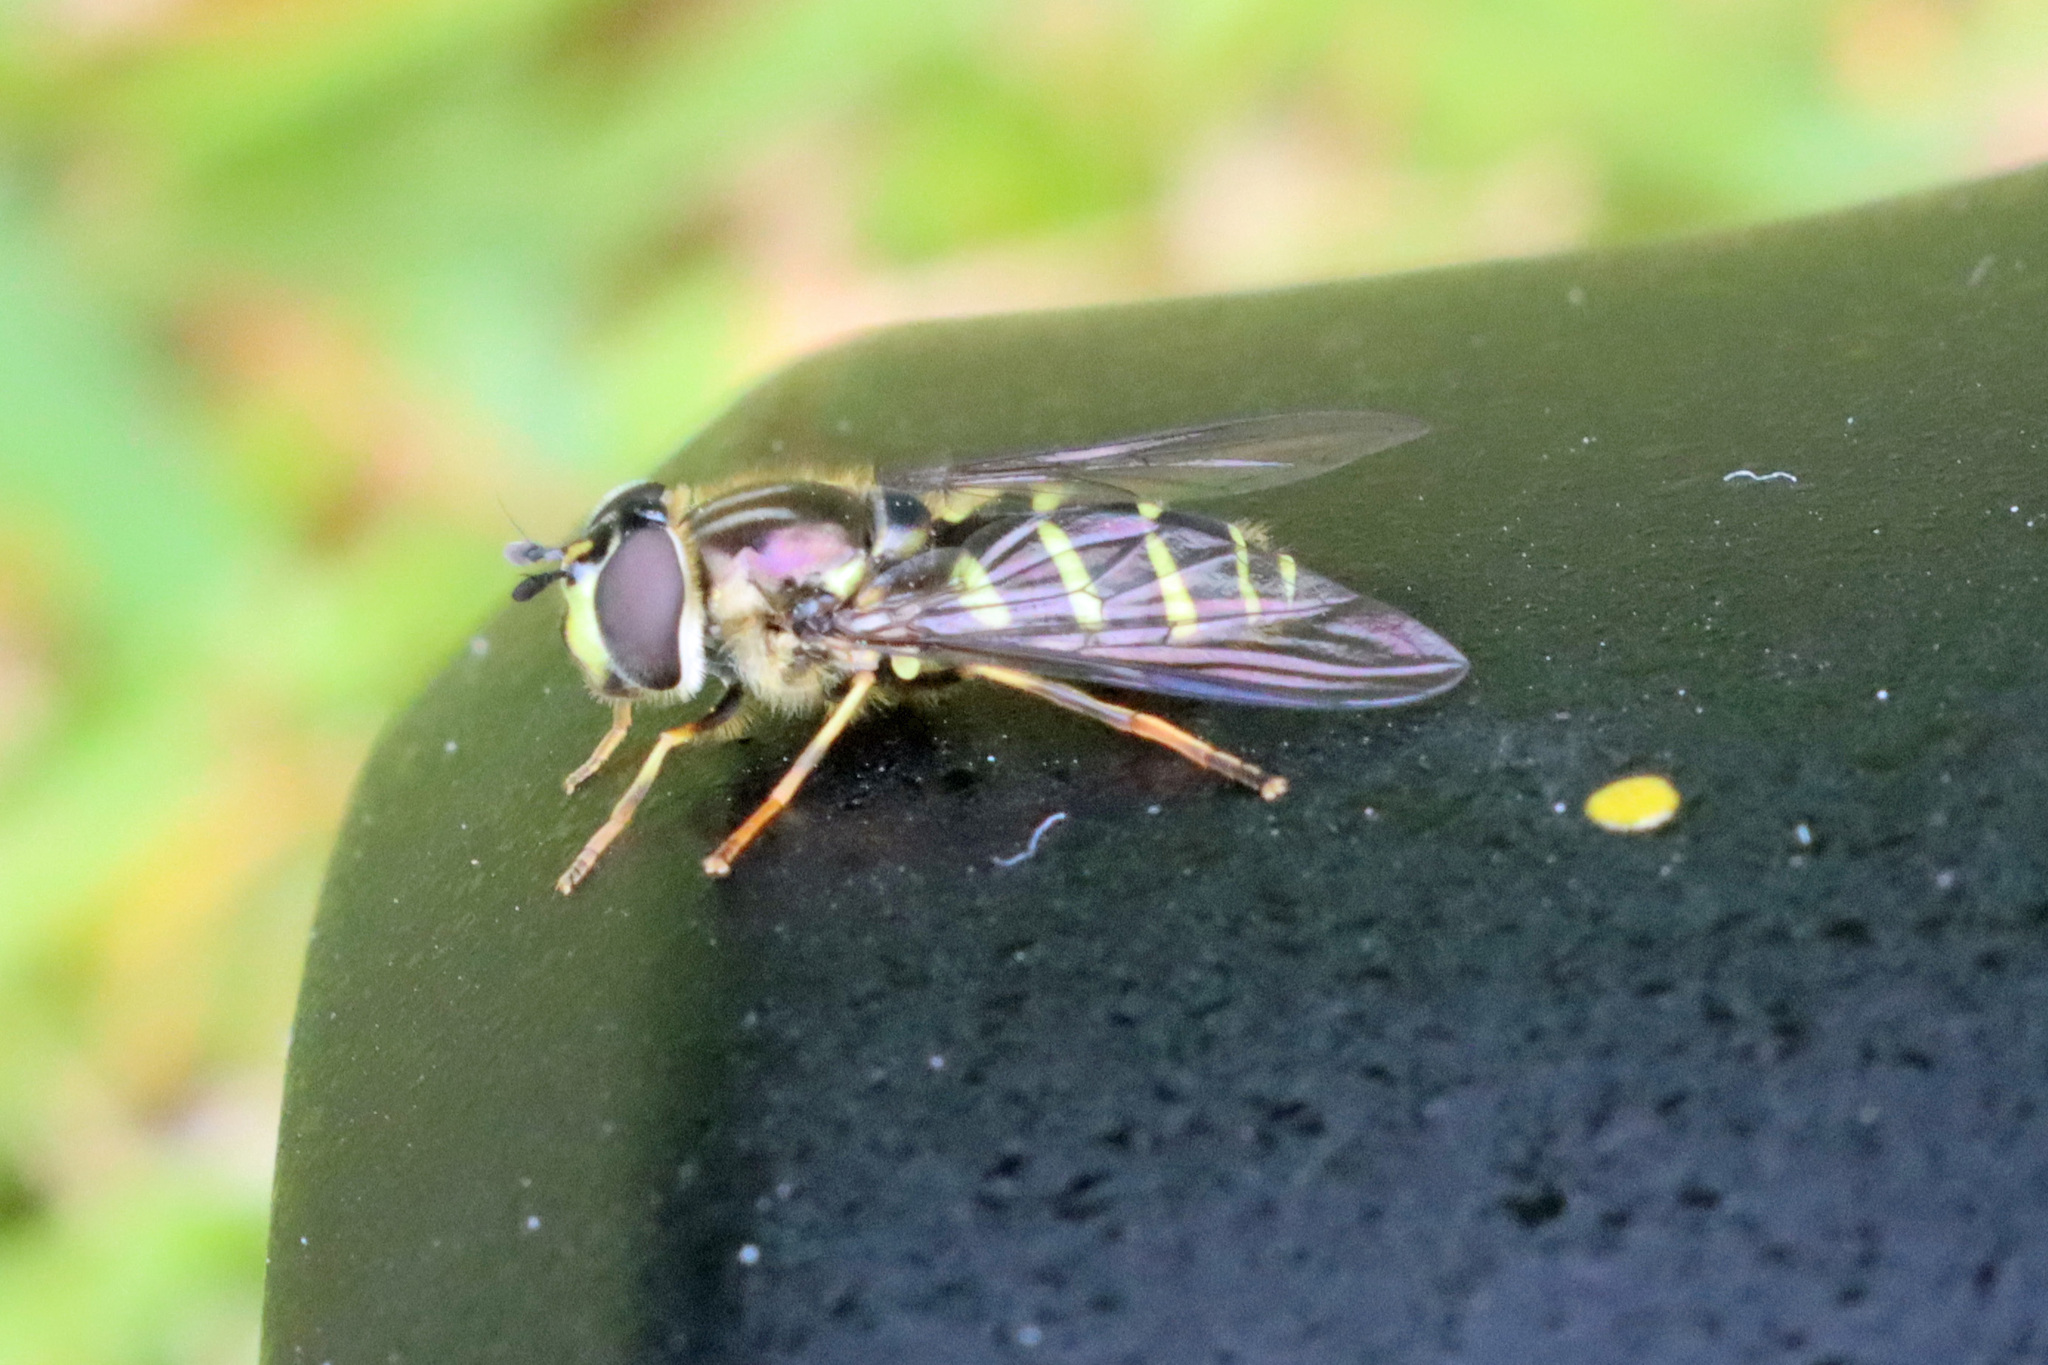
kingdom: Animalia
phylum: Arthropoda
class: Insecta
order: Diptera
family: Syrphidae
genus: Dasysyrphus
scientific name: Dasysyrphus albostriatus
